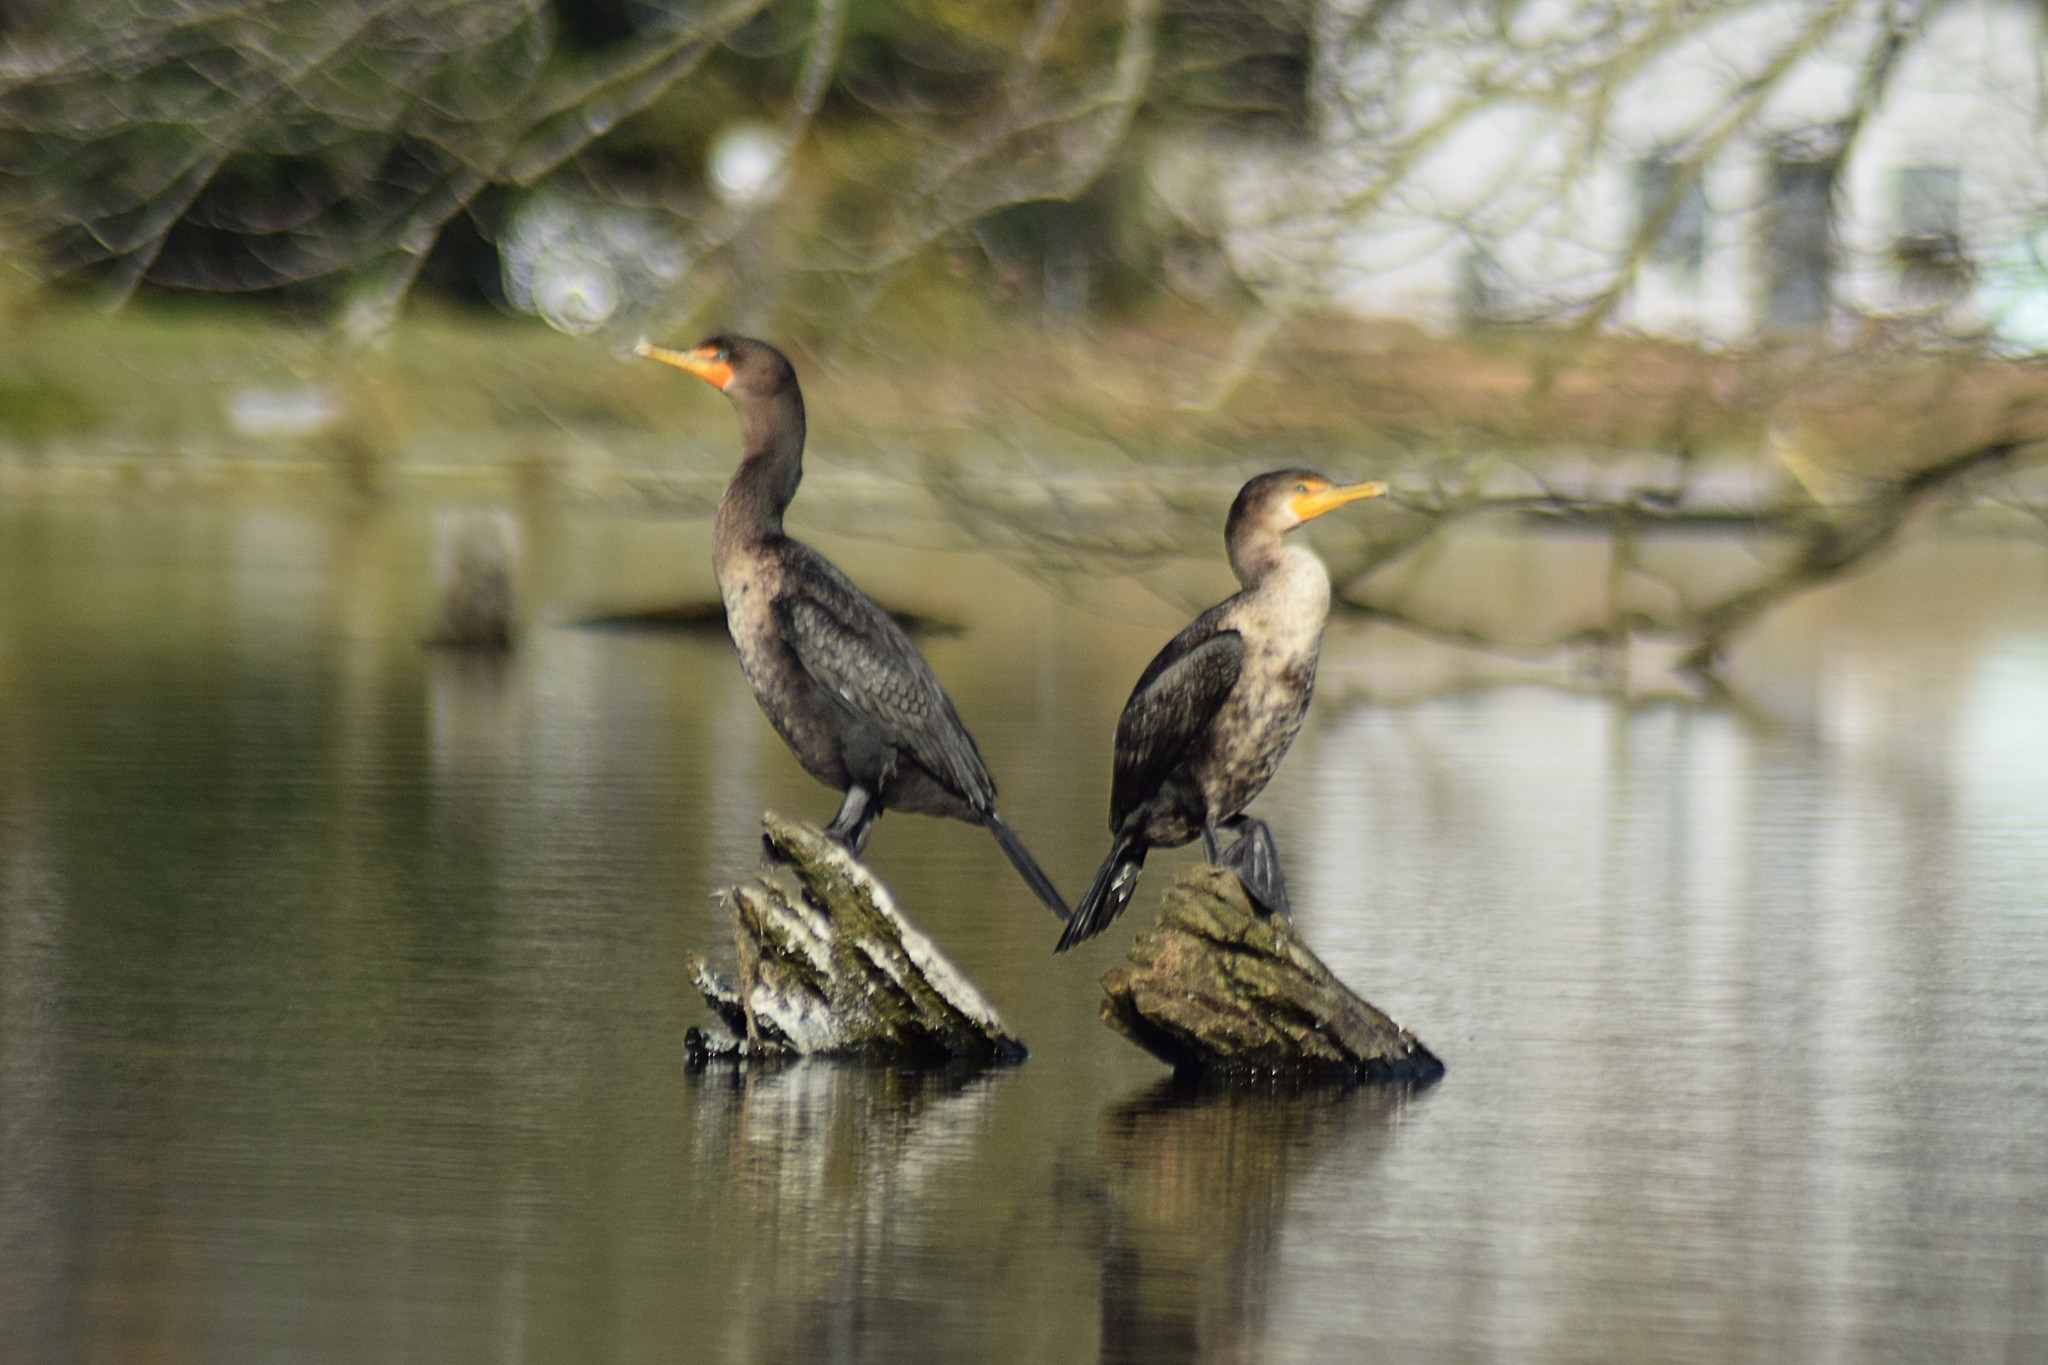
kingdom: Animalia
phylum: Chordata
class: Aves
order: Suliformes
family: Phalacrocoracidae
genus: Phalacrocorax
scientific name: Phalacrocorax auritus
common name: Double-crested cormorant
